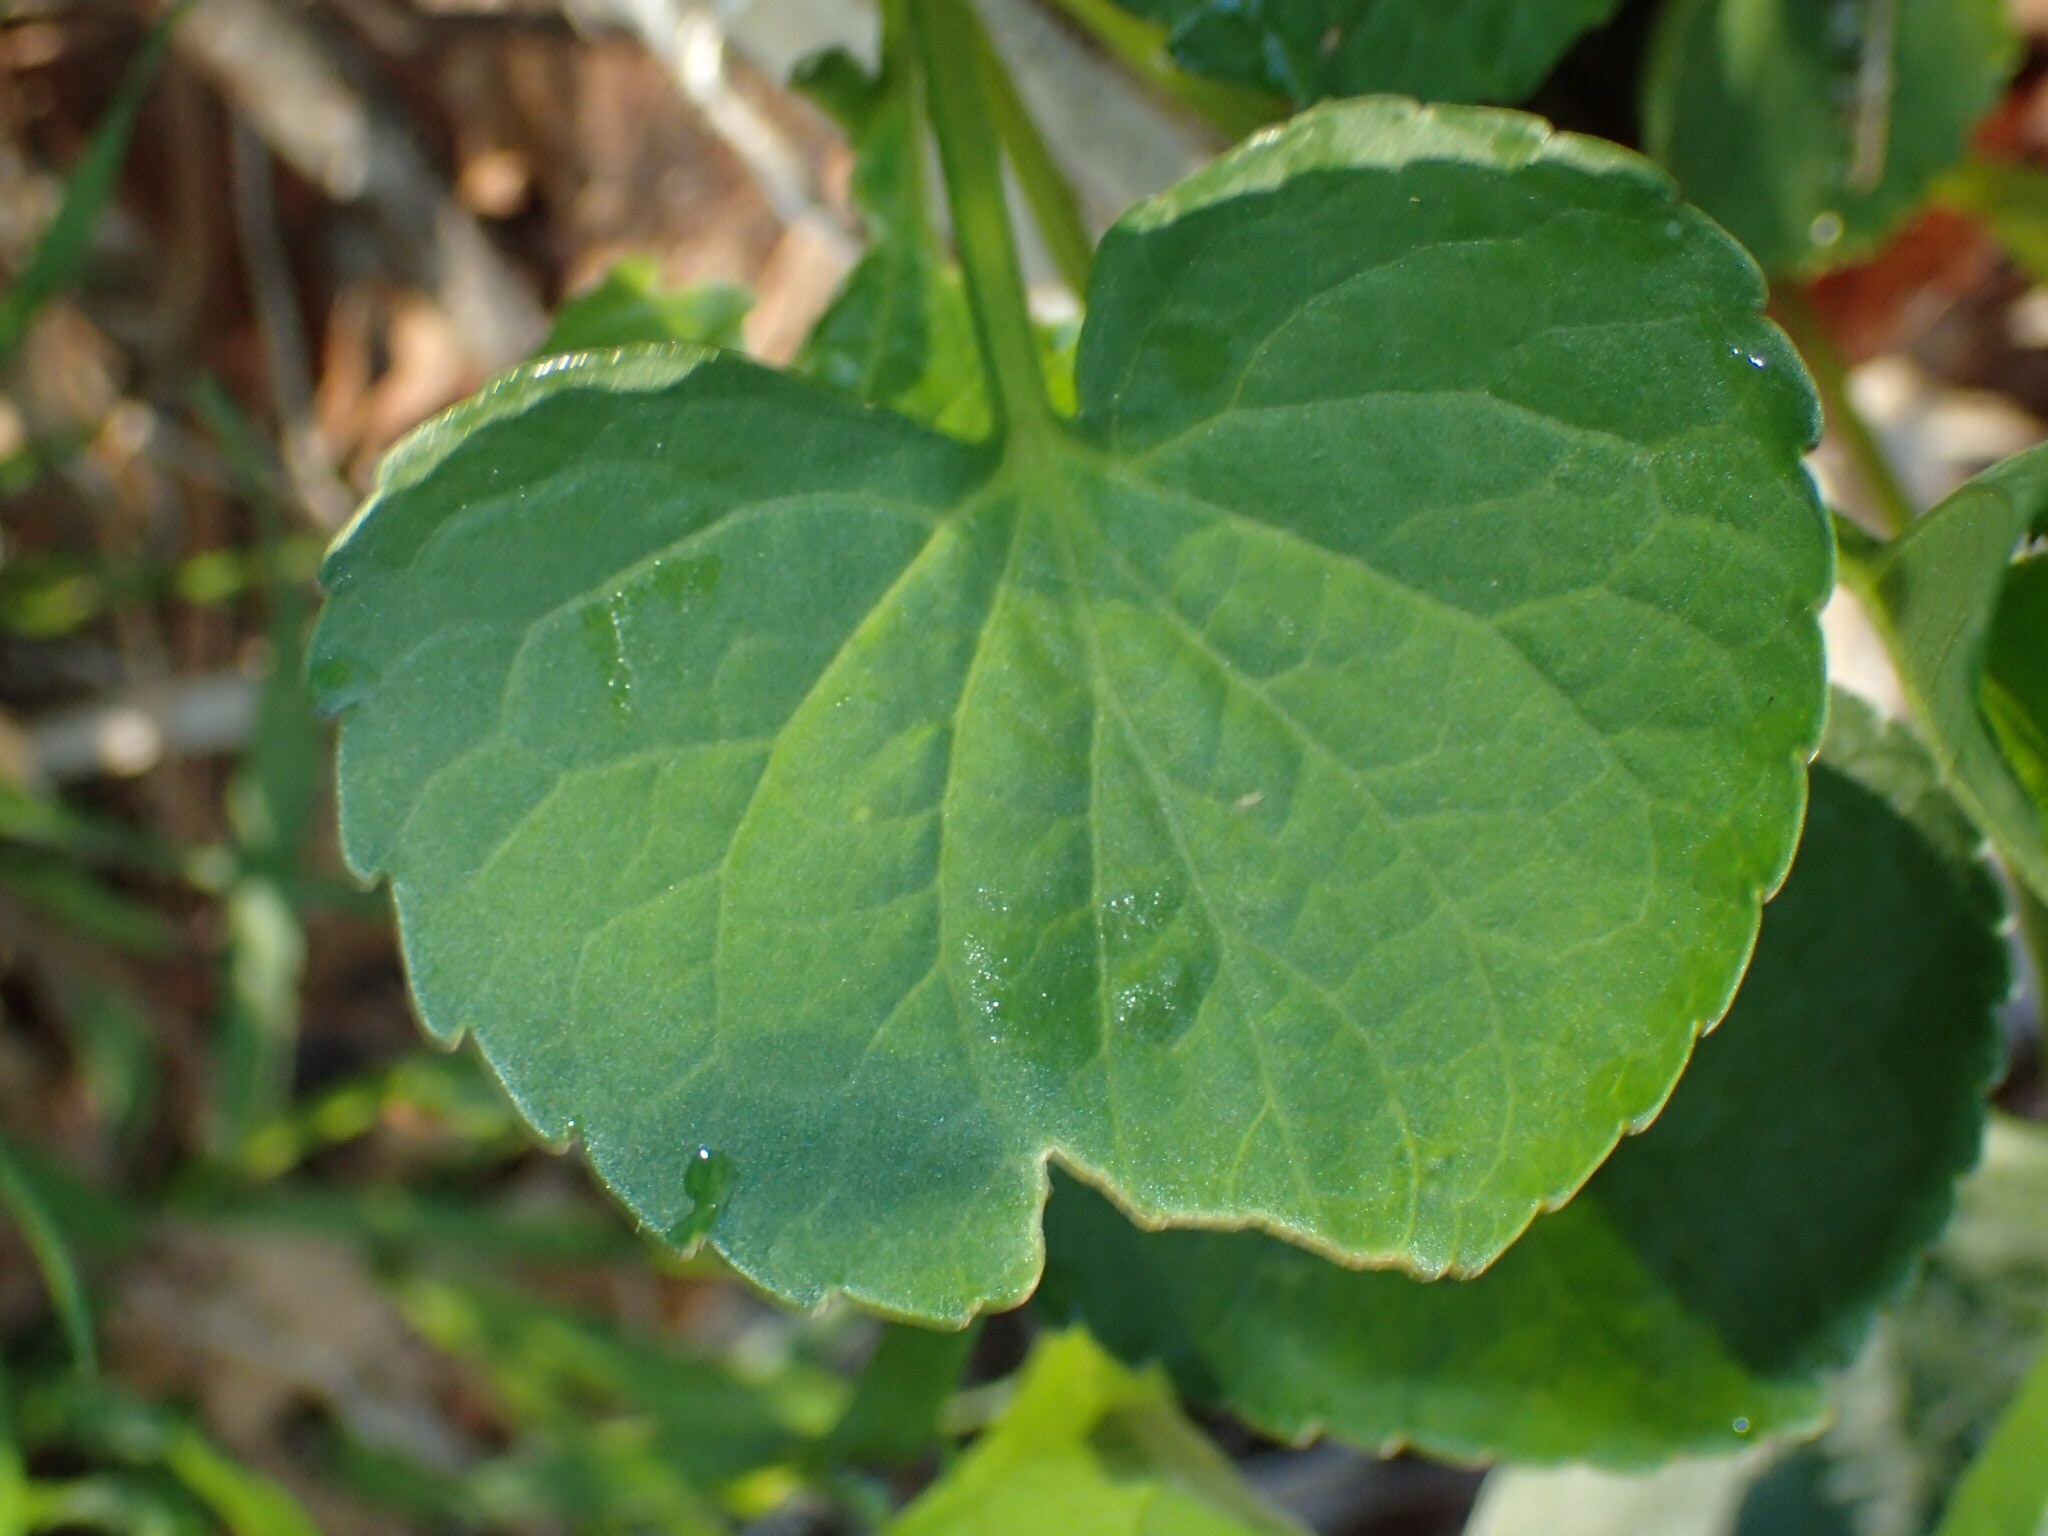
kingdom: Plantae
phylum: Tracheophyta
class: Magnoliopsida
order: Malpighiales
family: Violaceae
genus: Viola
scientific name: Viola sororia
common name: Dooryard violet
